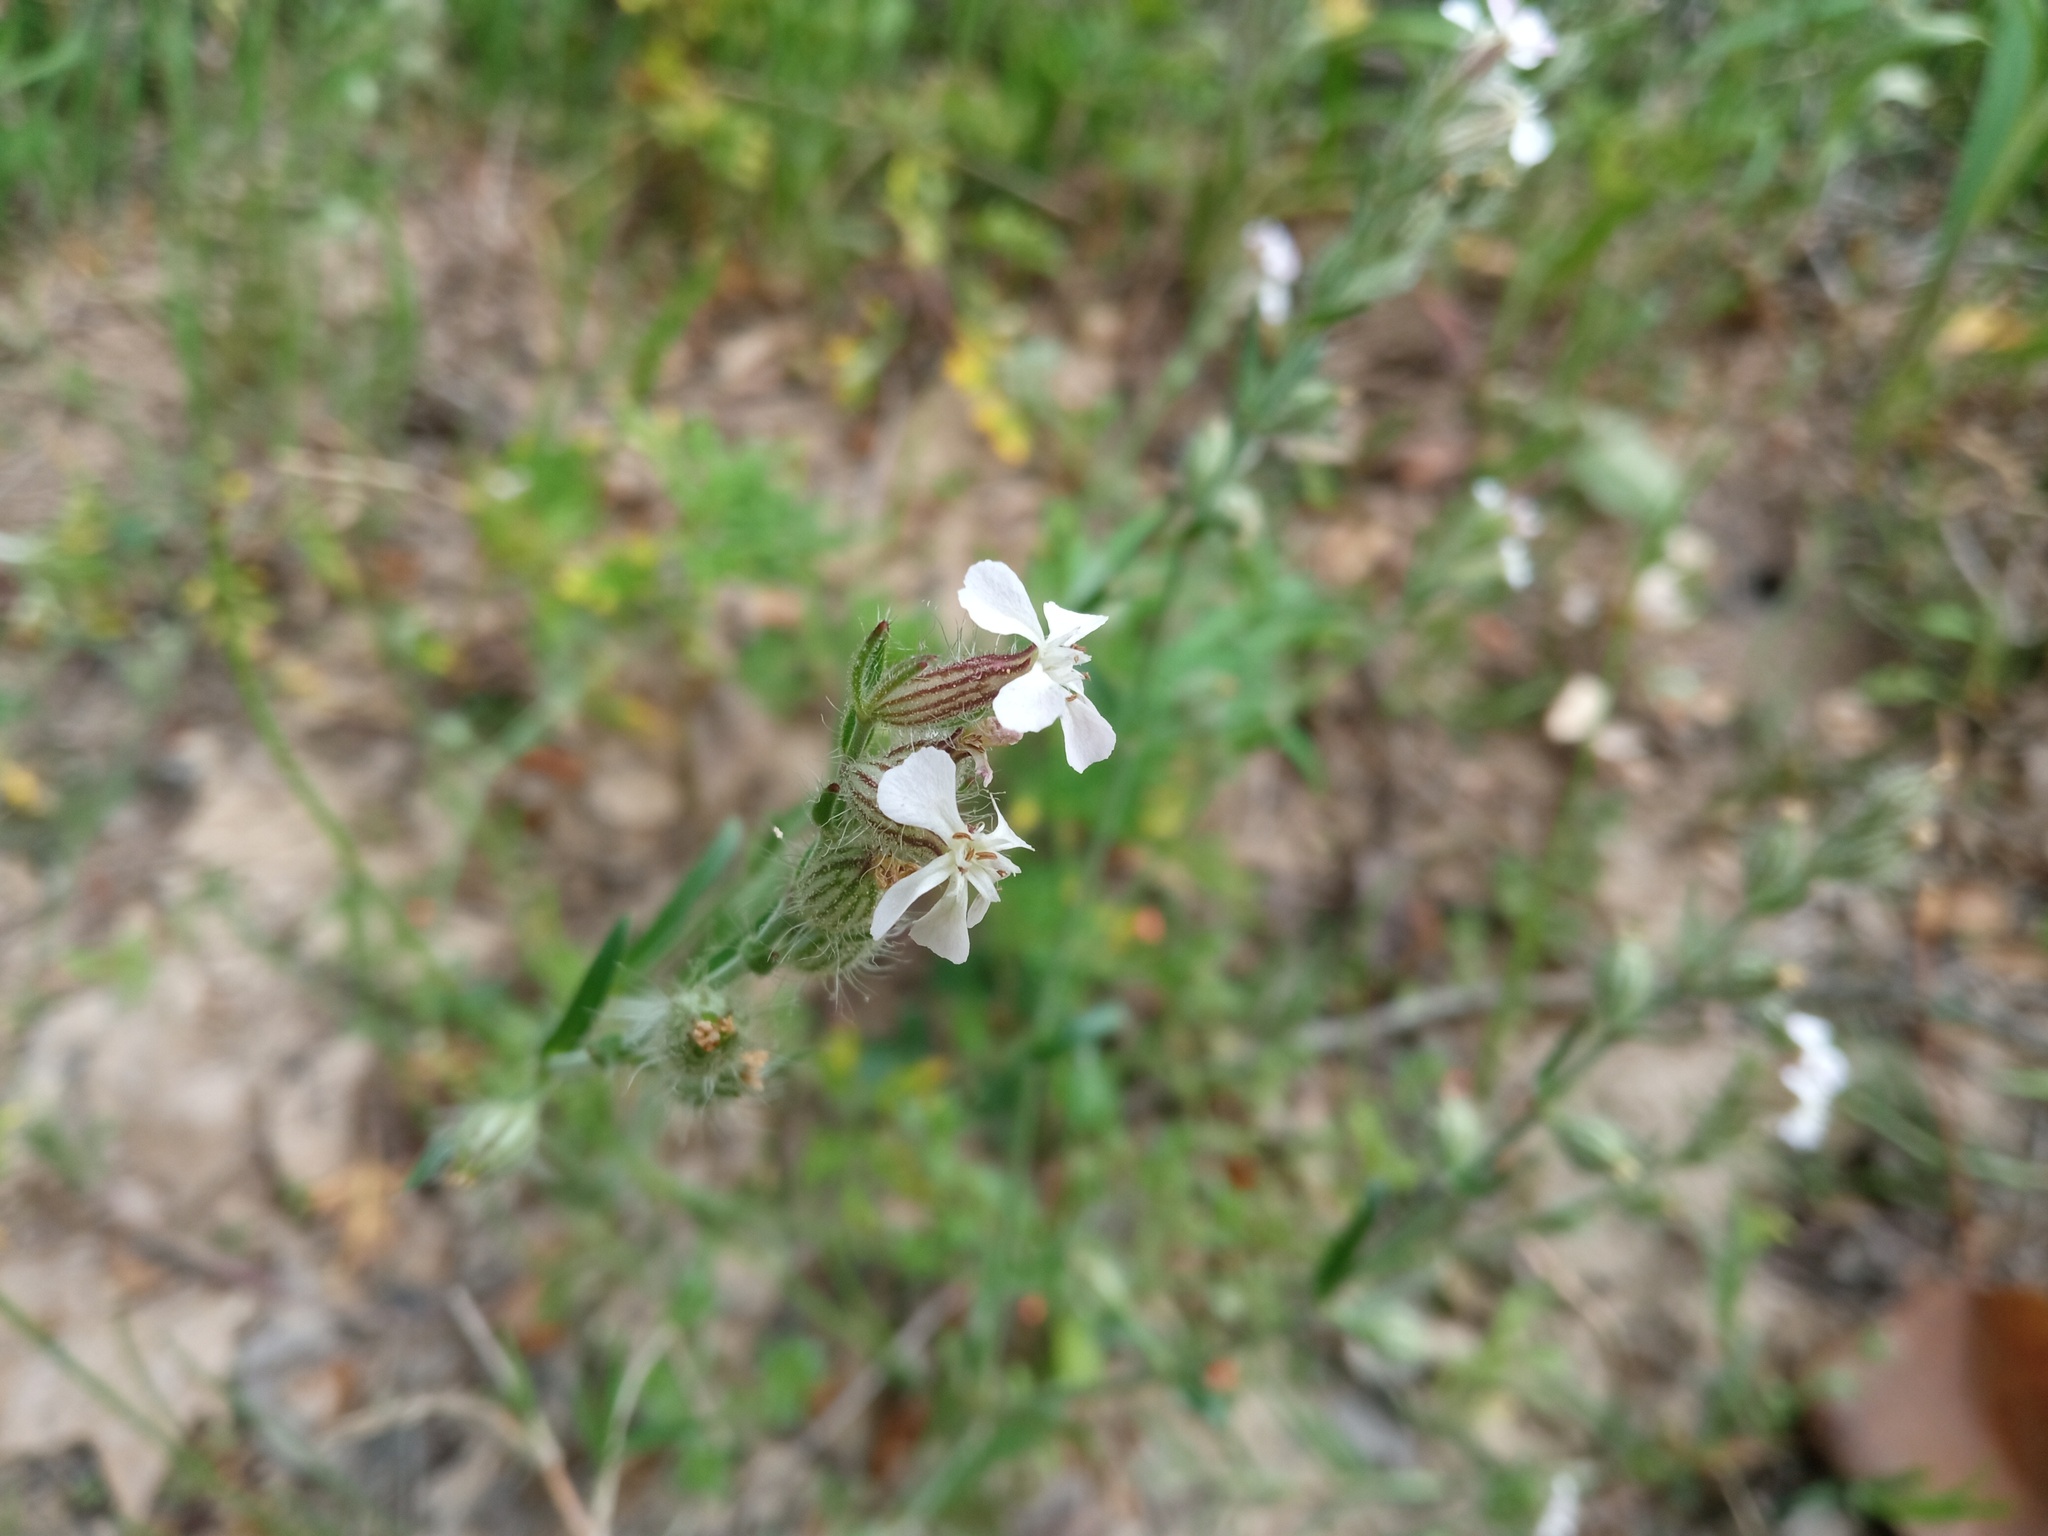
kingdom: Plantae
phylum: Tracheophyta
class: Magnoliopsida
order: Caryophyllales
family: Caryophyllaceae
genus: Silene
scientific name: Silene gallica
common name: Small-flowered catchfly
